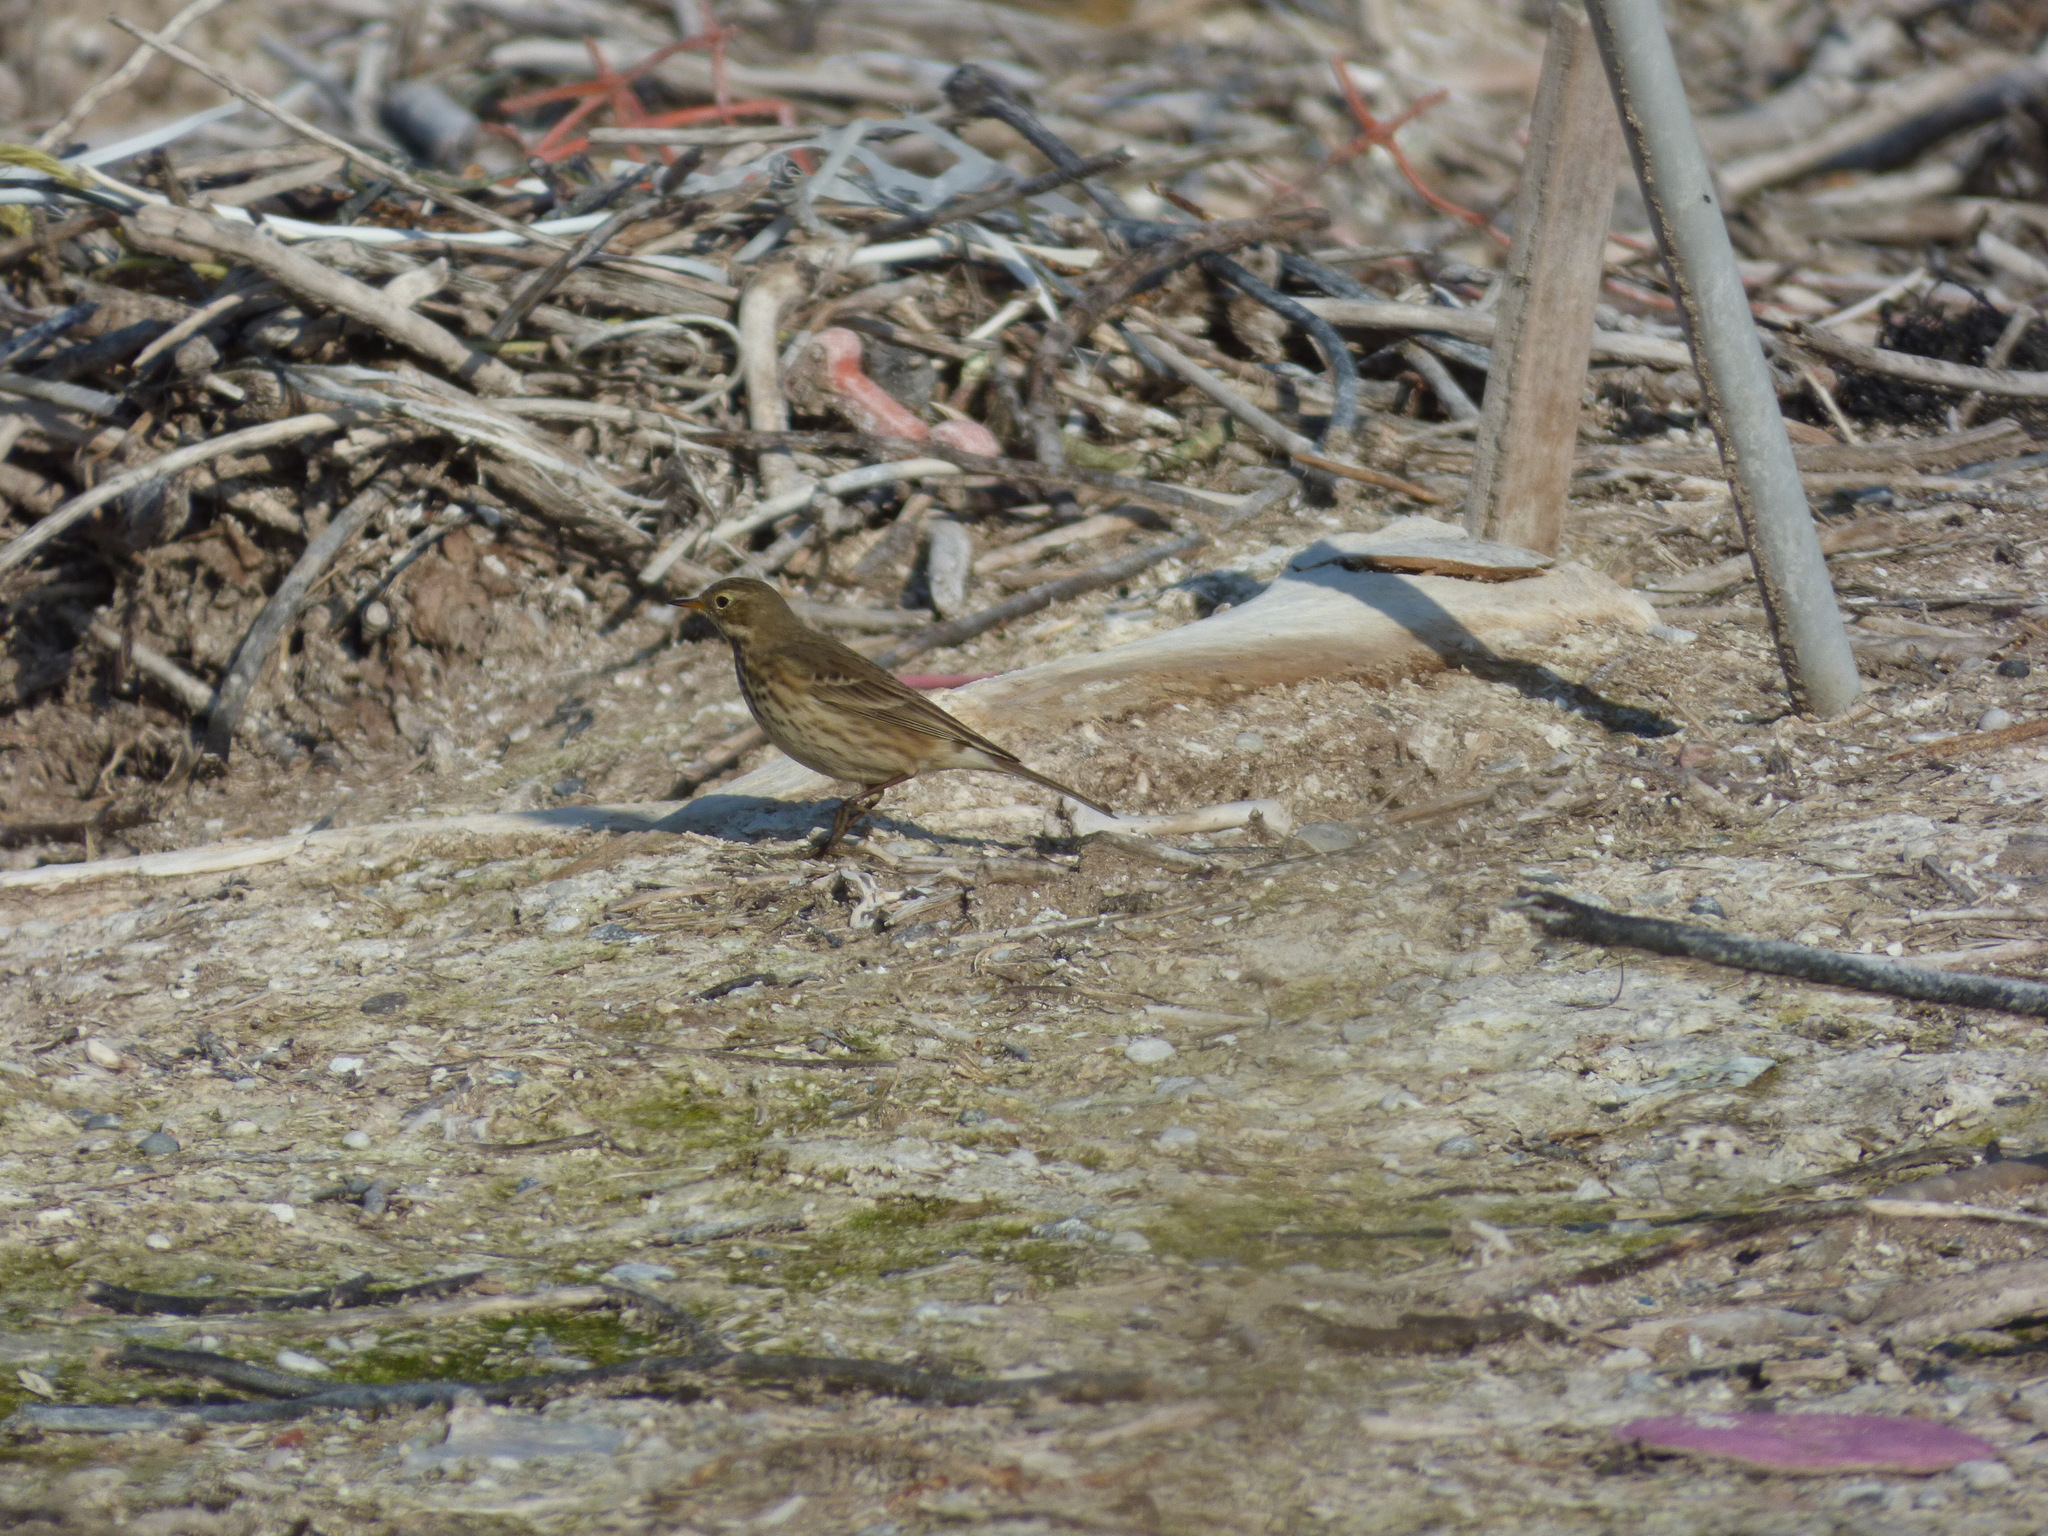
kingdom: Animalia
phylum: Chordata
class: Aves
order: Passeriformes
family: Motacillidae
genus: Anthus
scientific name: Anthus rubescens
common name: Buff-bellied pipit
